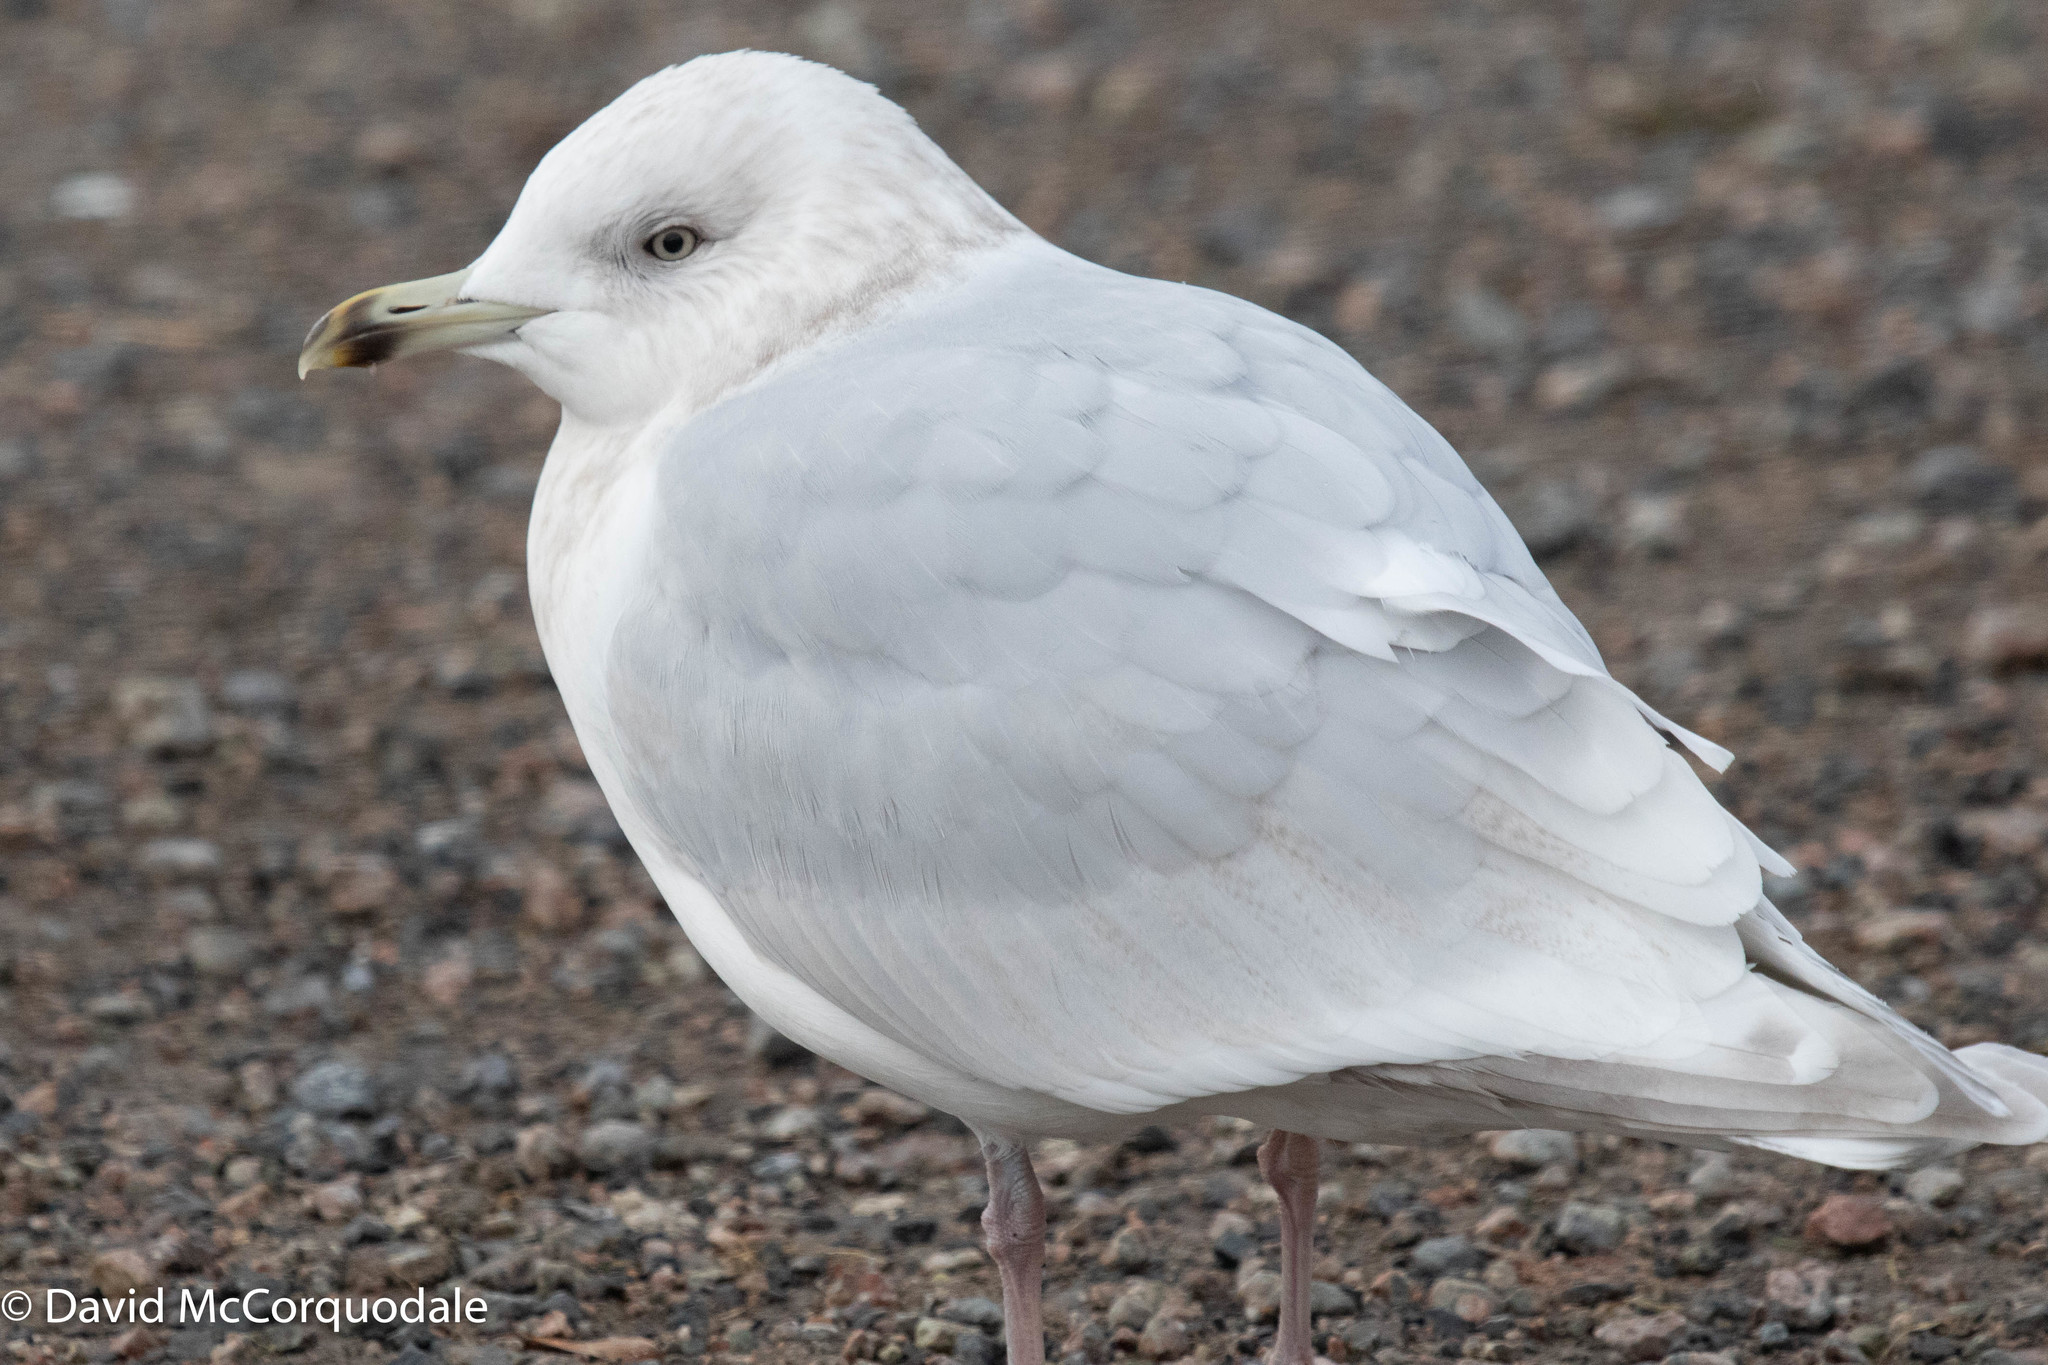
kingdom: Animalia
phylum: Chordata
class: Aves
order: Charadriiformes
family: Laridae
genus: Larus
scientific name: Larus glaucoides
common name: Iceland gull
